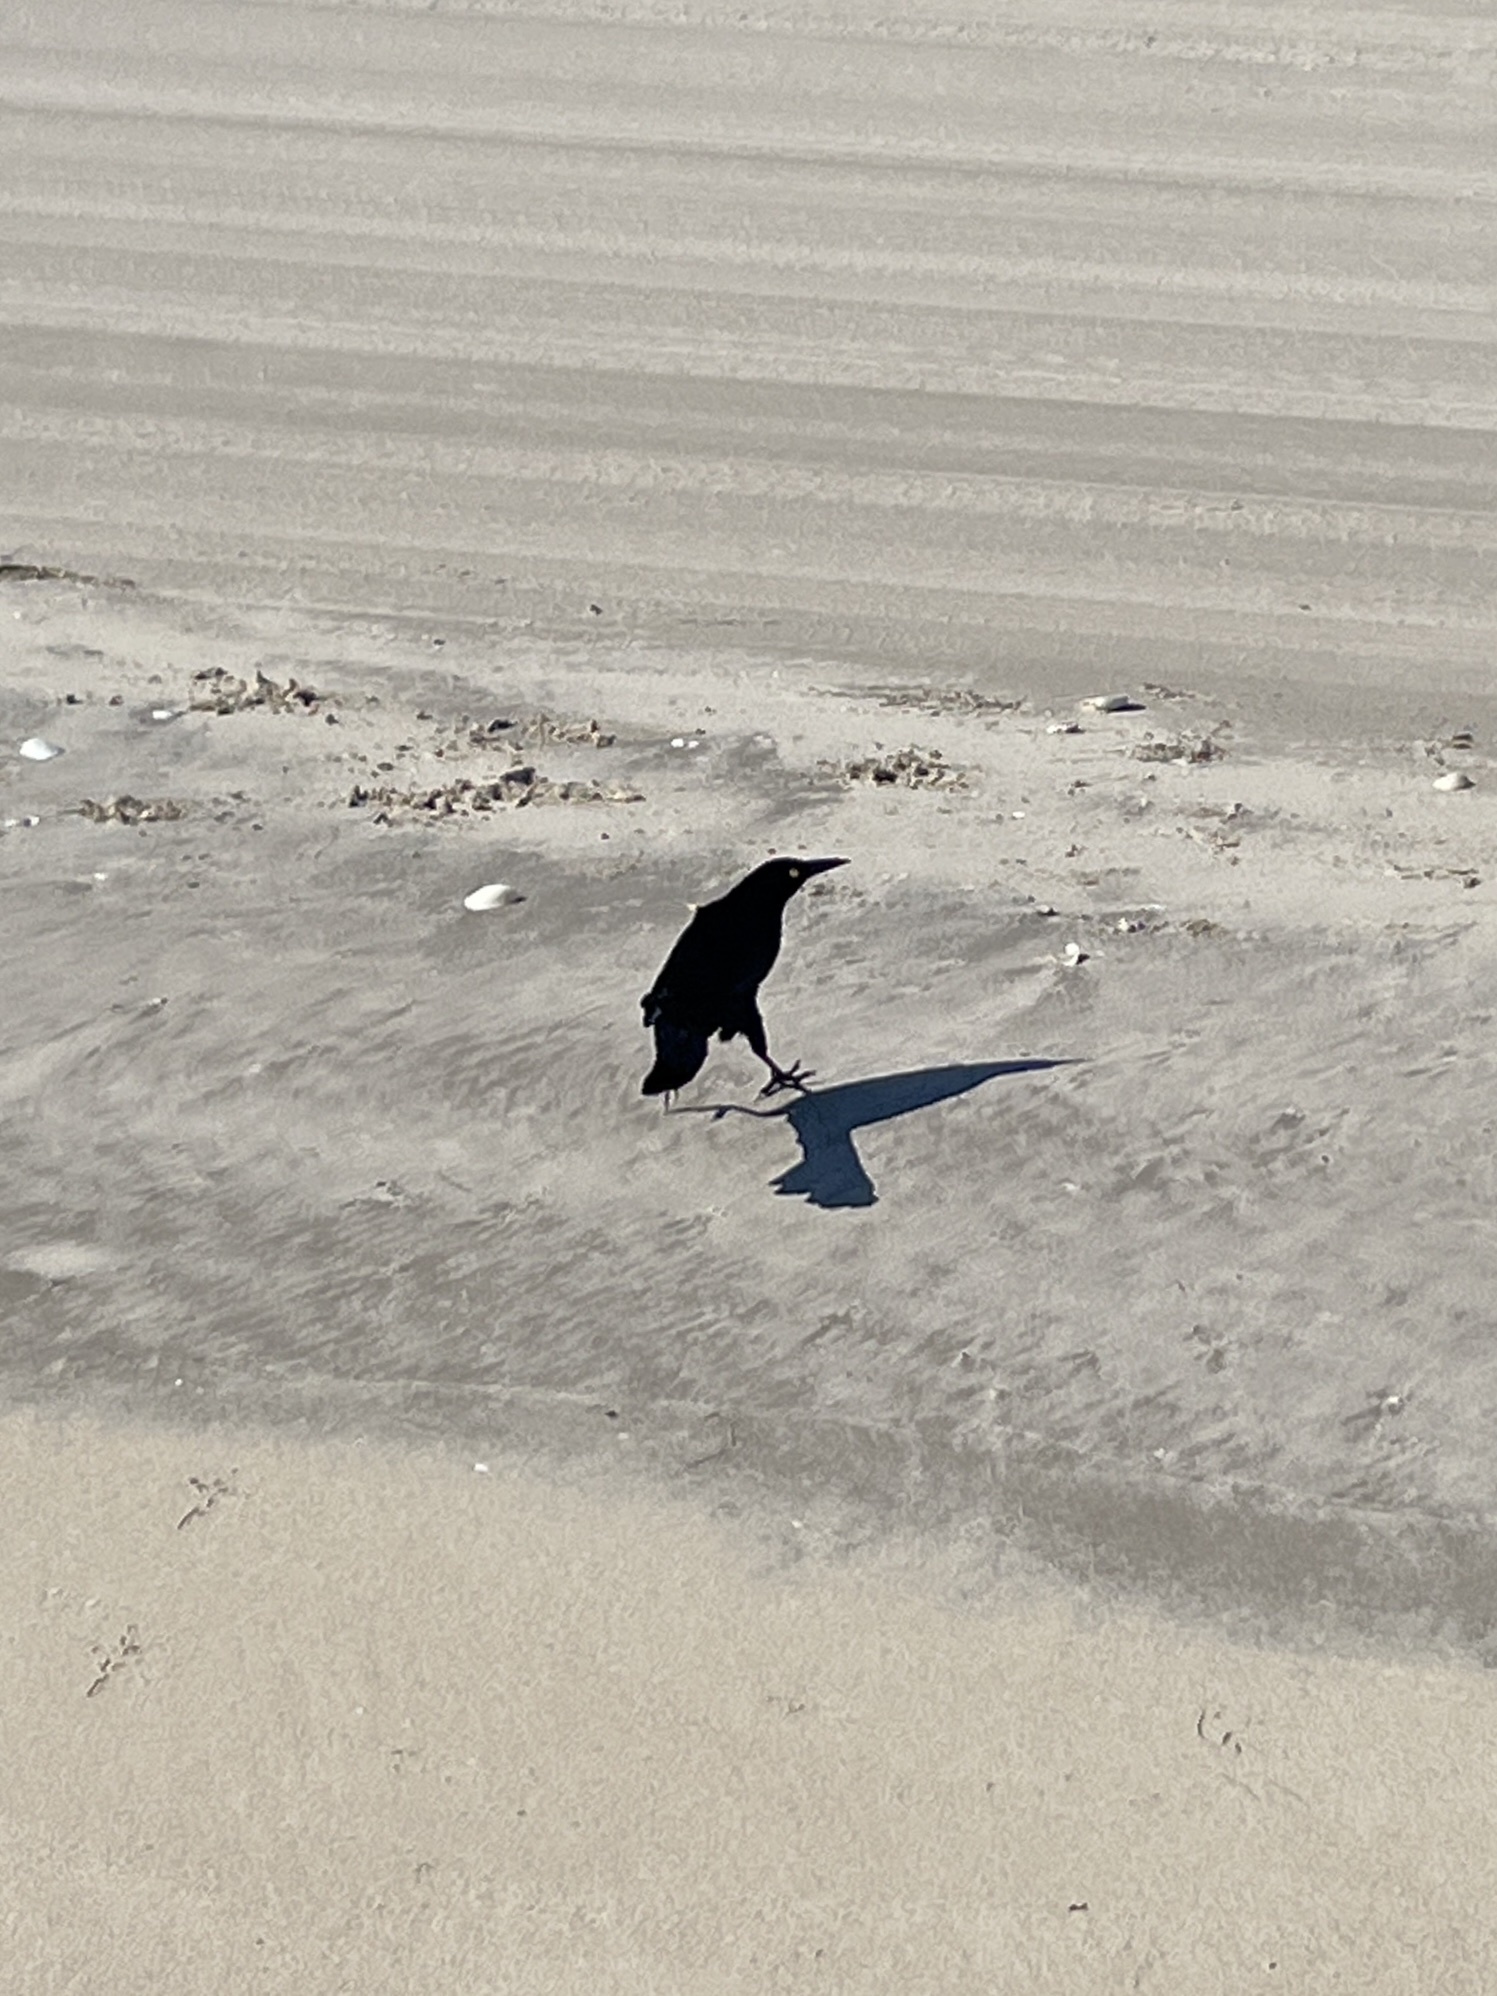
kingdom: Animalia
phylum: Chordata
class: Aves
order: Passeriformes
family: Icteridae
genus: Quiscalus
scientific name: Quiscalus mexicanus
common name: Great-tailed grackle
